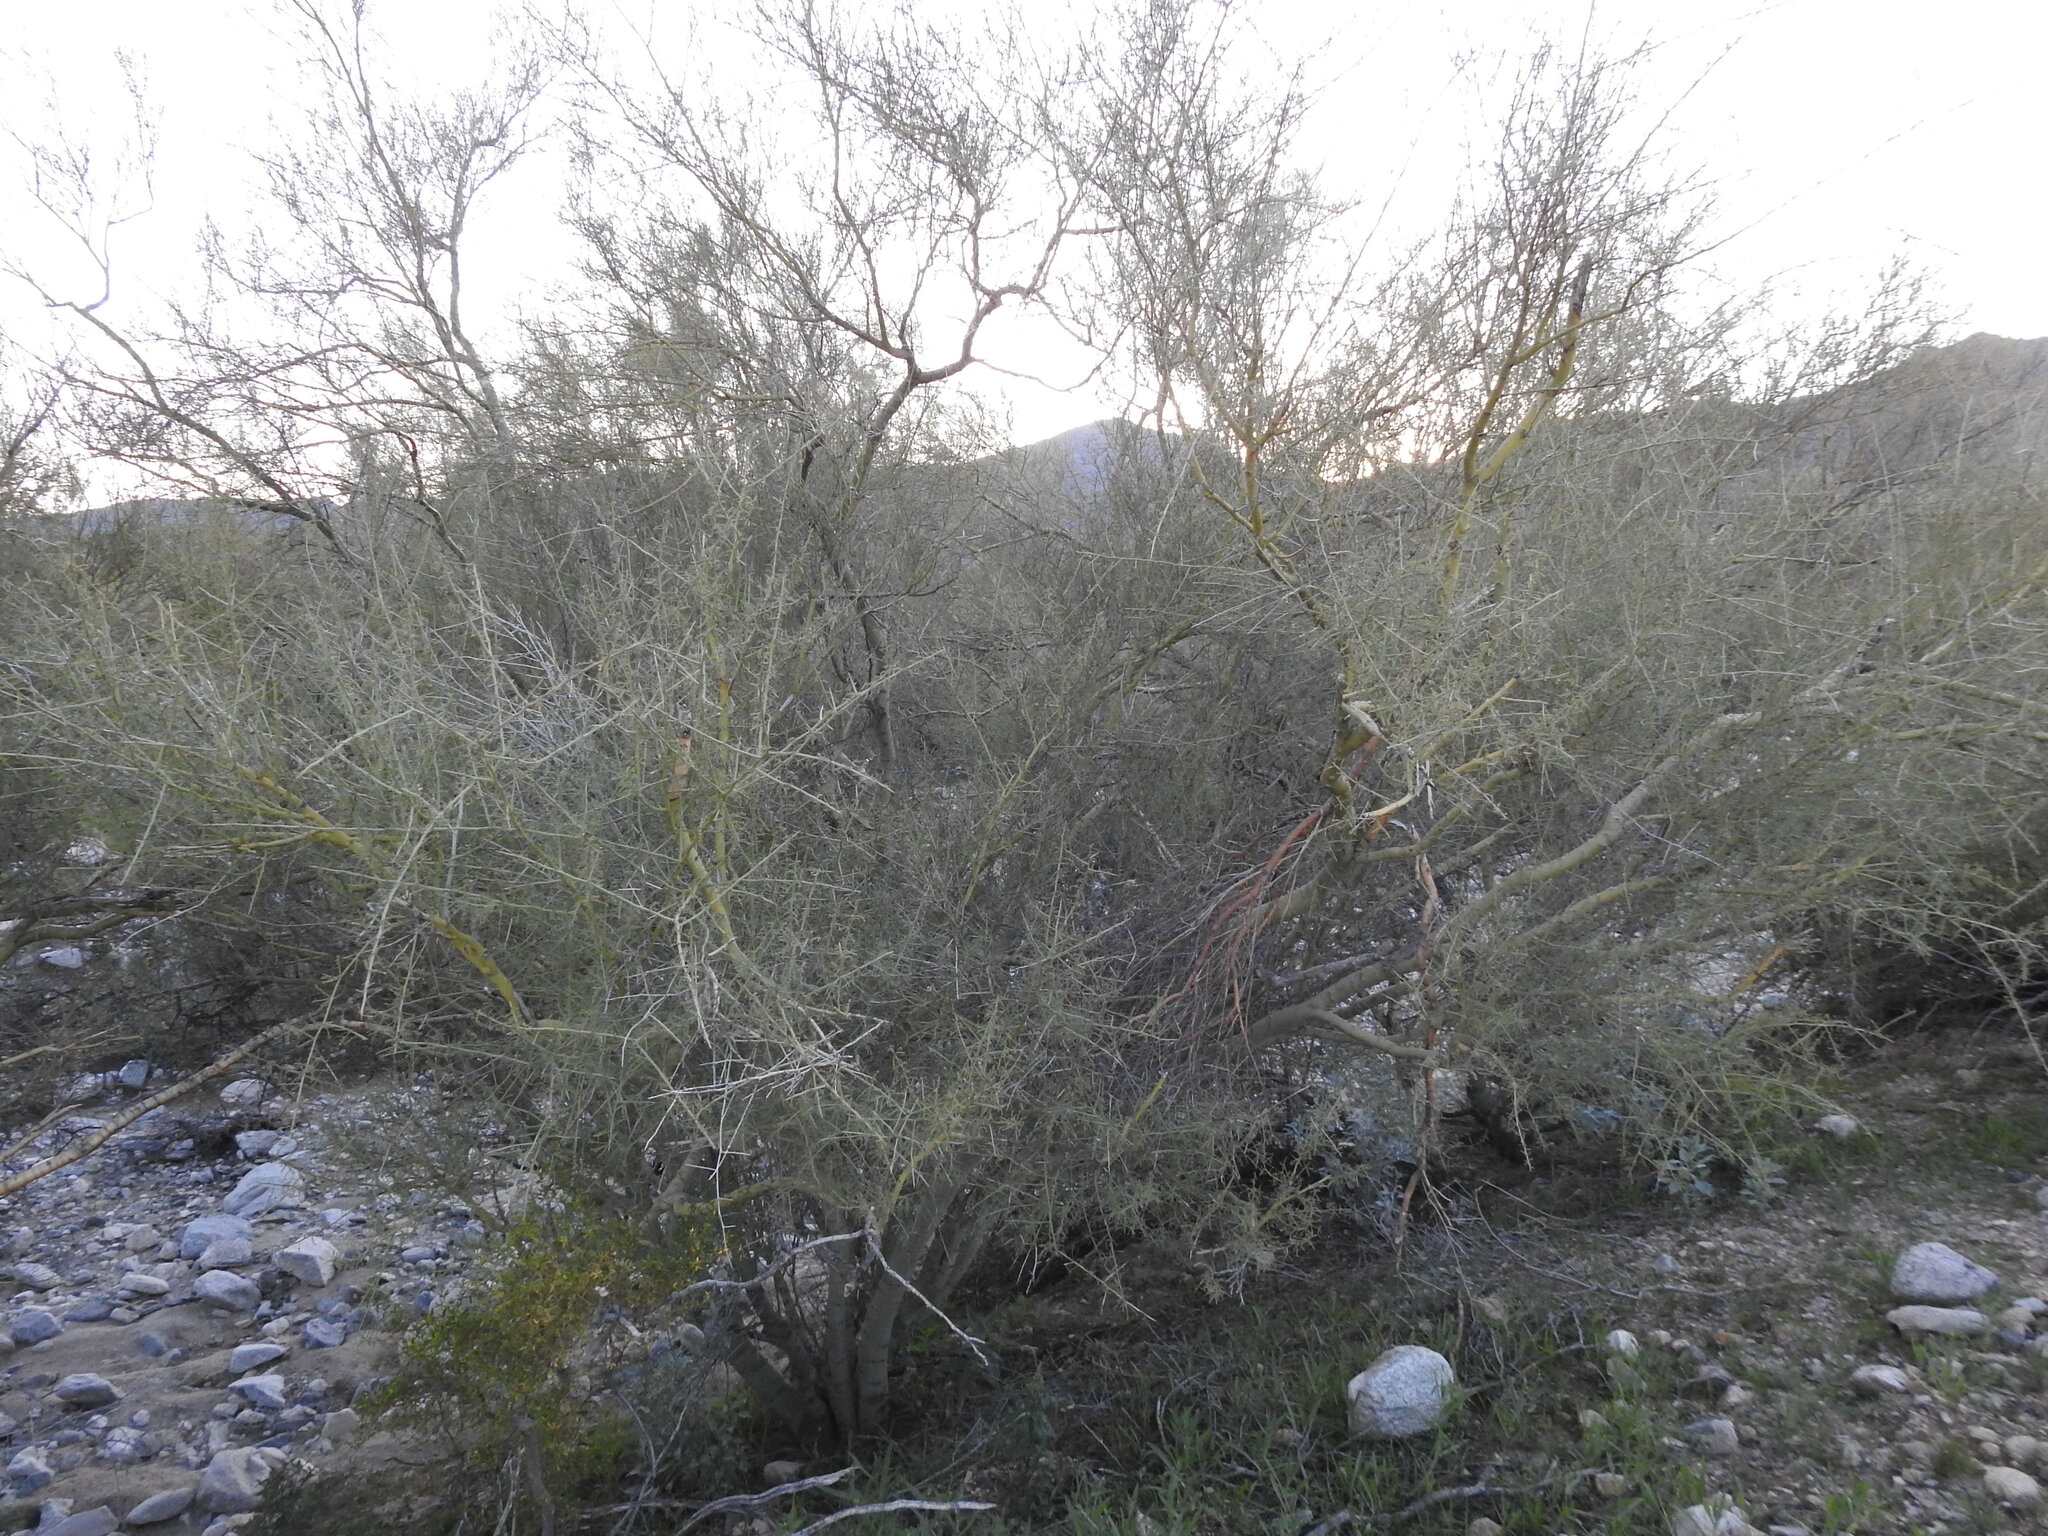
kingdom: Plantae
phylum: Tracheophyta
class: Magnoliopsida
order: Fabales
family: Fabaceae
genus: Parkinsonia
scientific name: Parkinsonia microphylla
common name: Yellow paloverde
